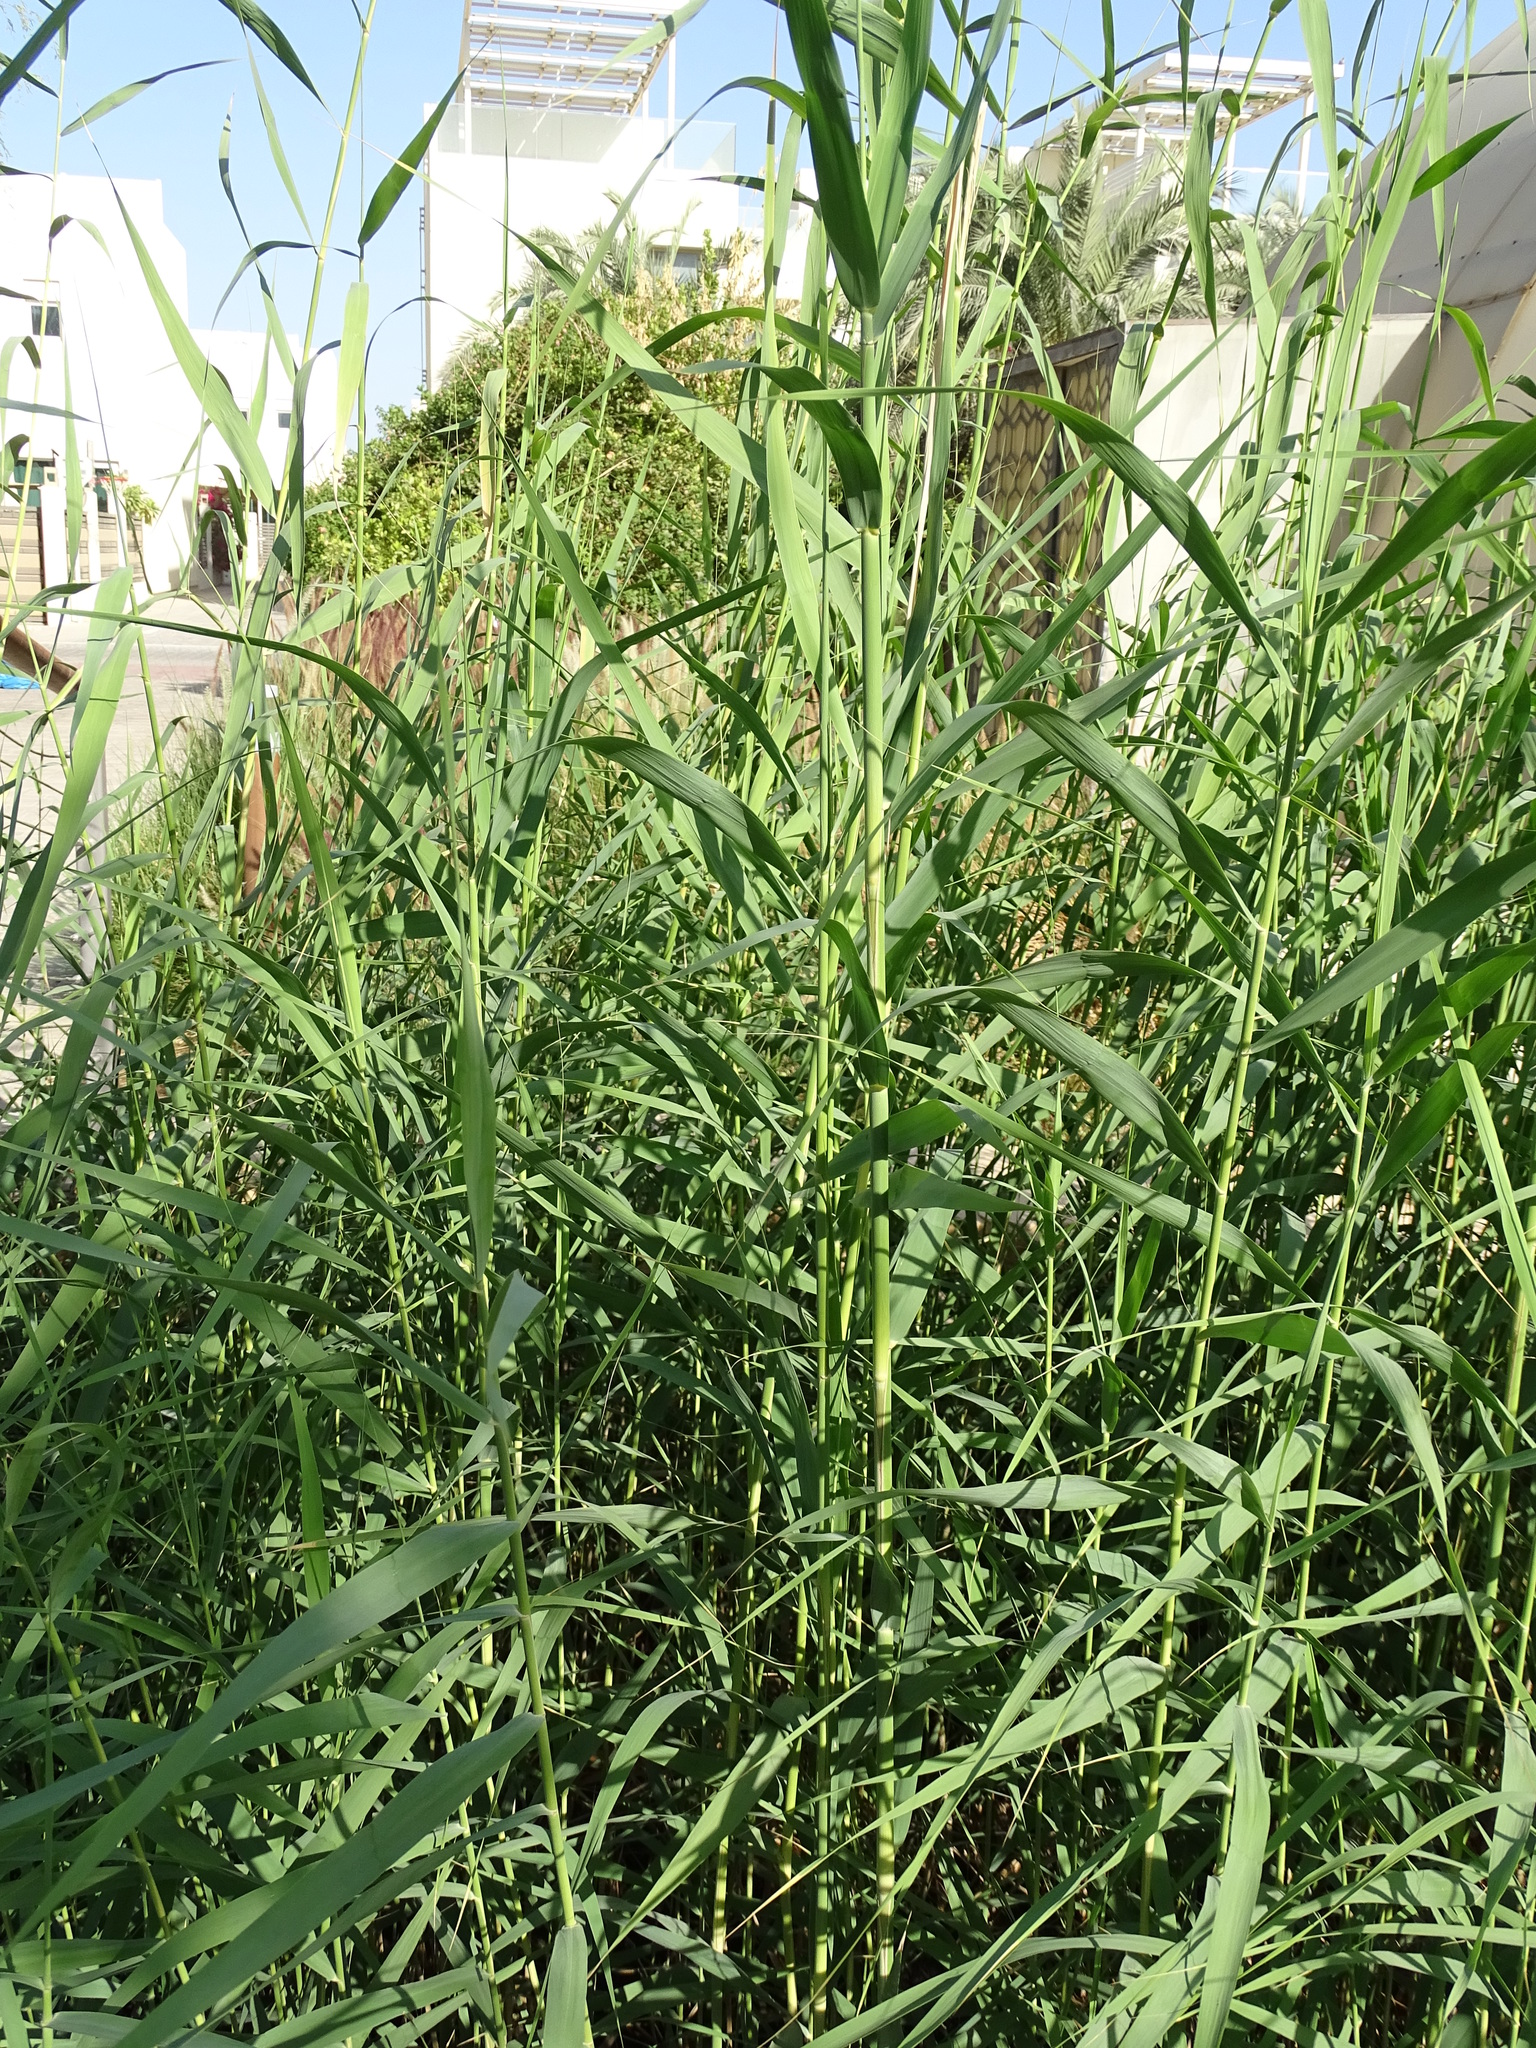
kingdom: Plantae
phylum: Tracheophyta
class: Liliopsida
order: Poales
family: Poaceae
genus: Phragmites
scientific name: Phragmites australis
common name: Common reed
